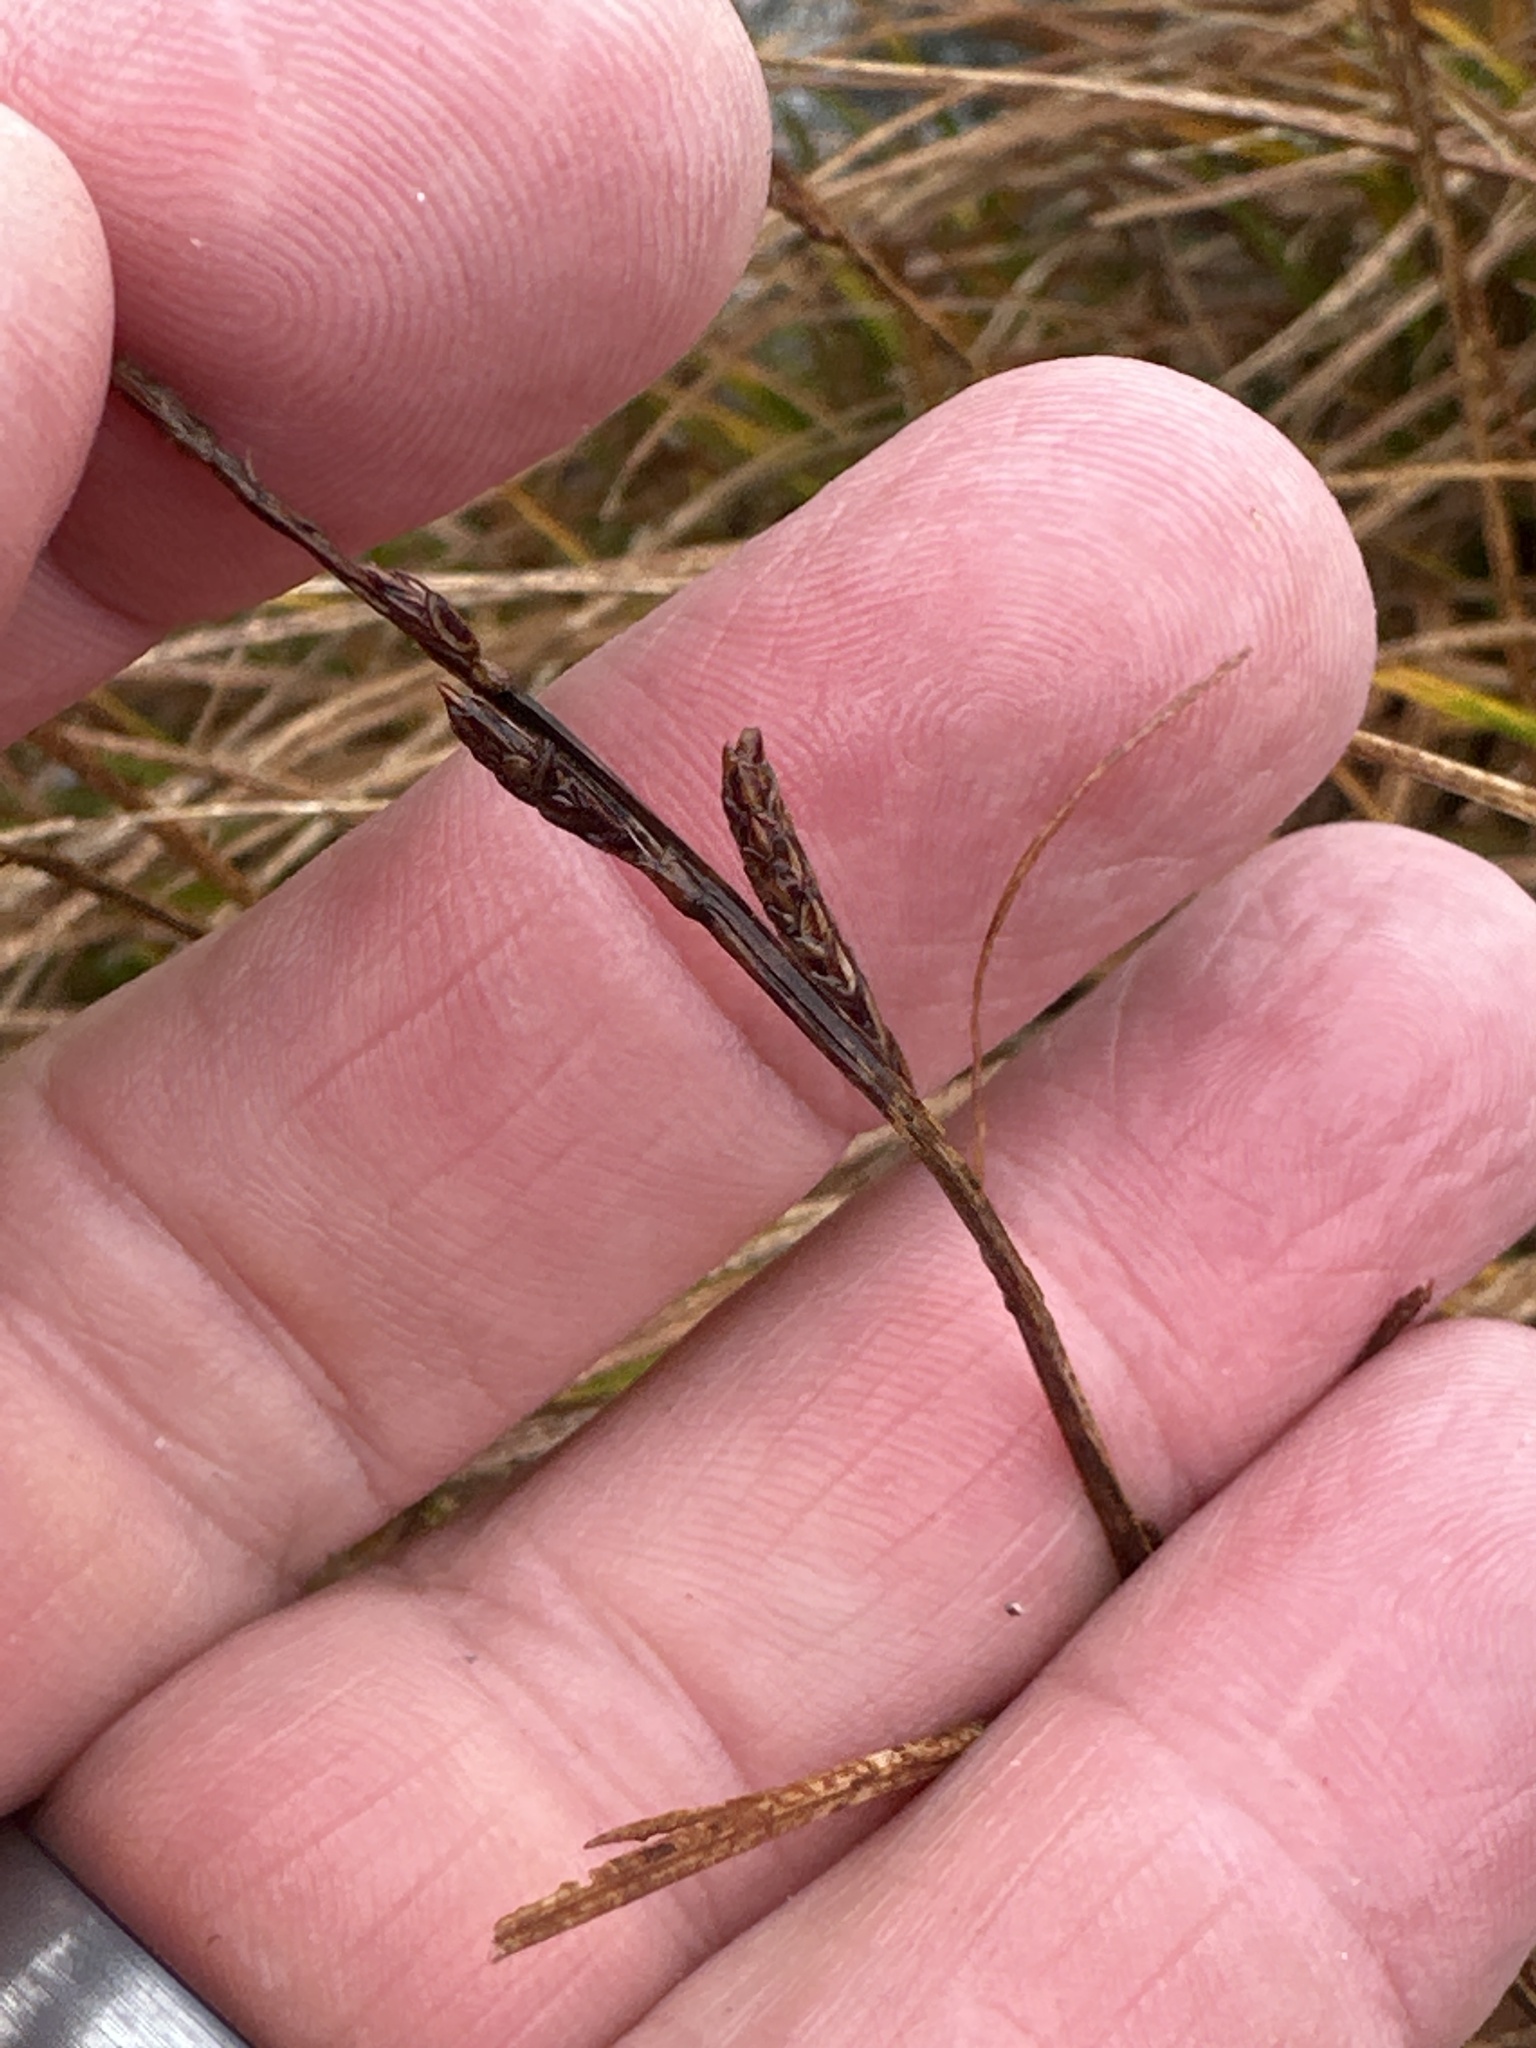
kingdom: Plantae
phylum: Tracheophyta
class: Liliopsida
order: Poales
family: Cyperaceae
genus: Carex
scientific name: Carex bigelowii
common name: Stiff sedge
